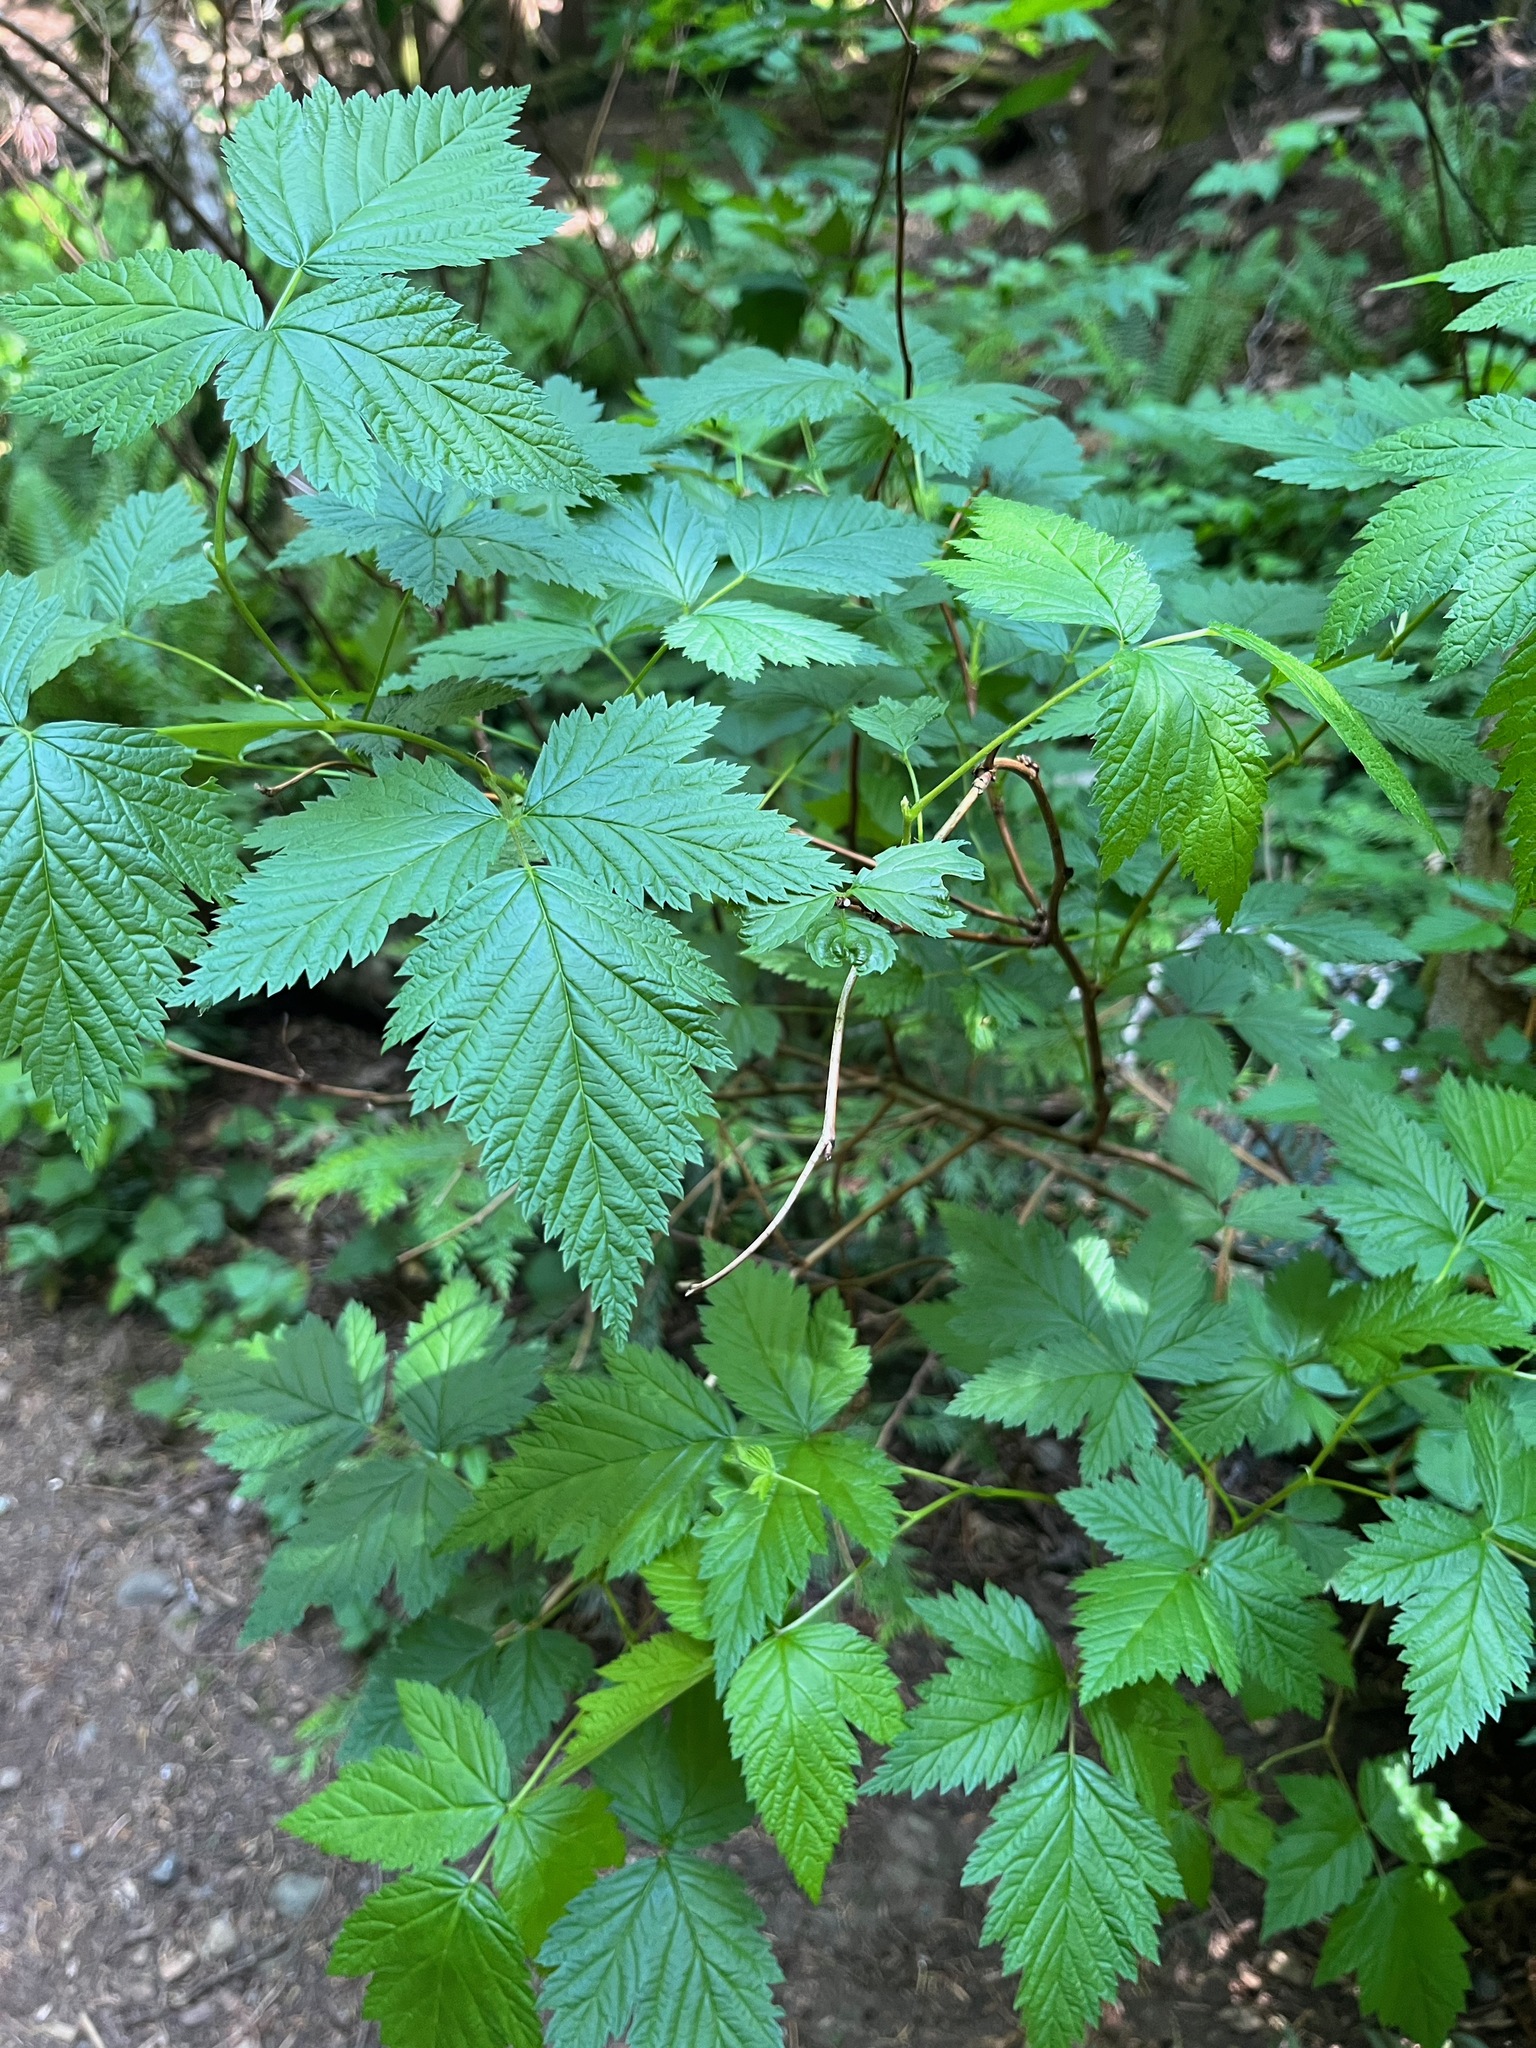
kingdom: Plantae
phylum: Tracheophyta
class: Magnoliopsida
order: Rosales
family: Rosaceae
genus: Rubus
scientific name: Rubus spectabilis
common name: Salmonberry
